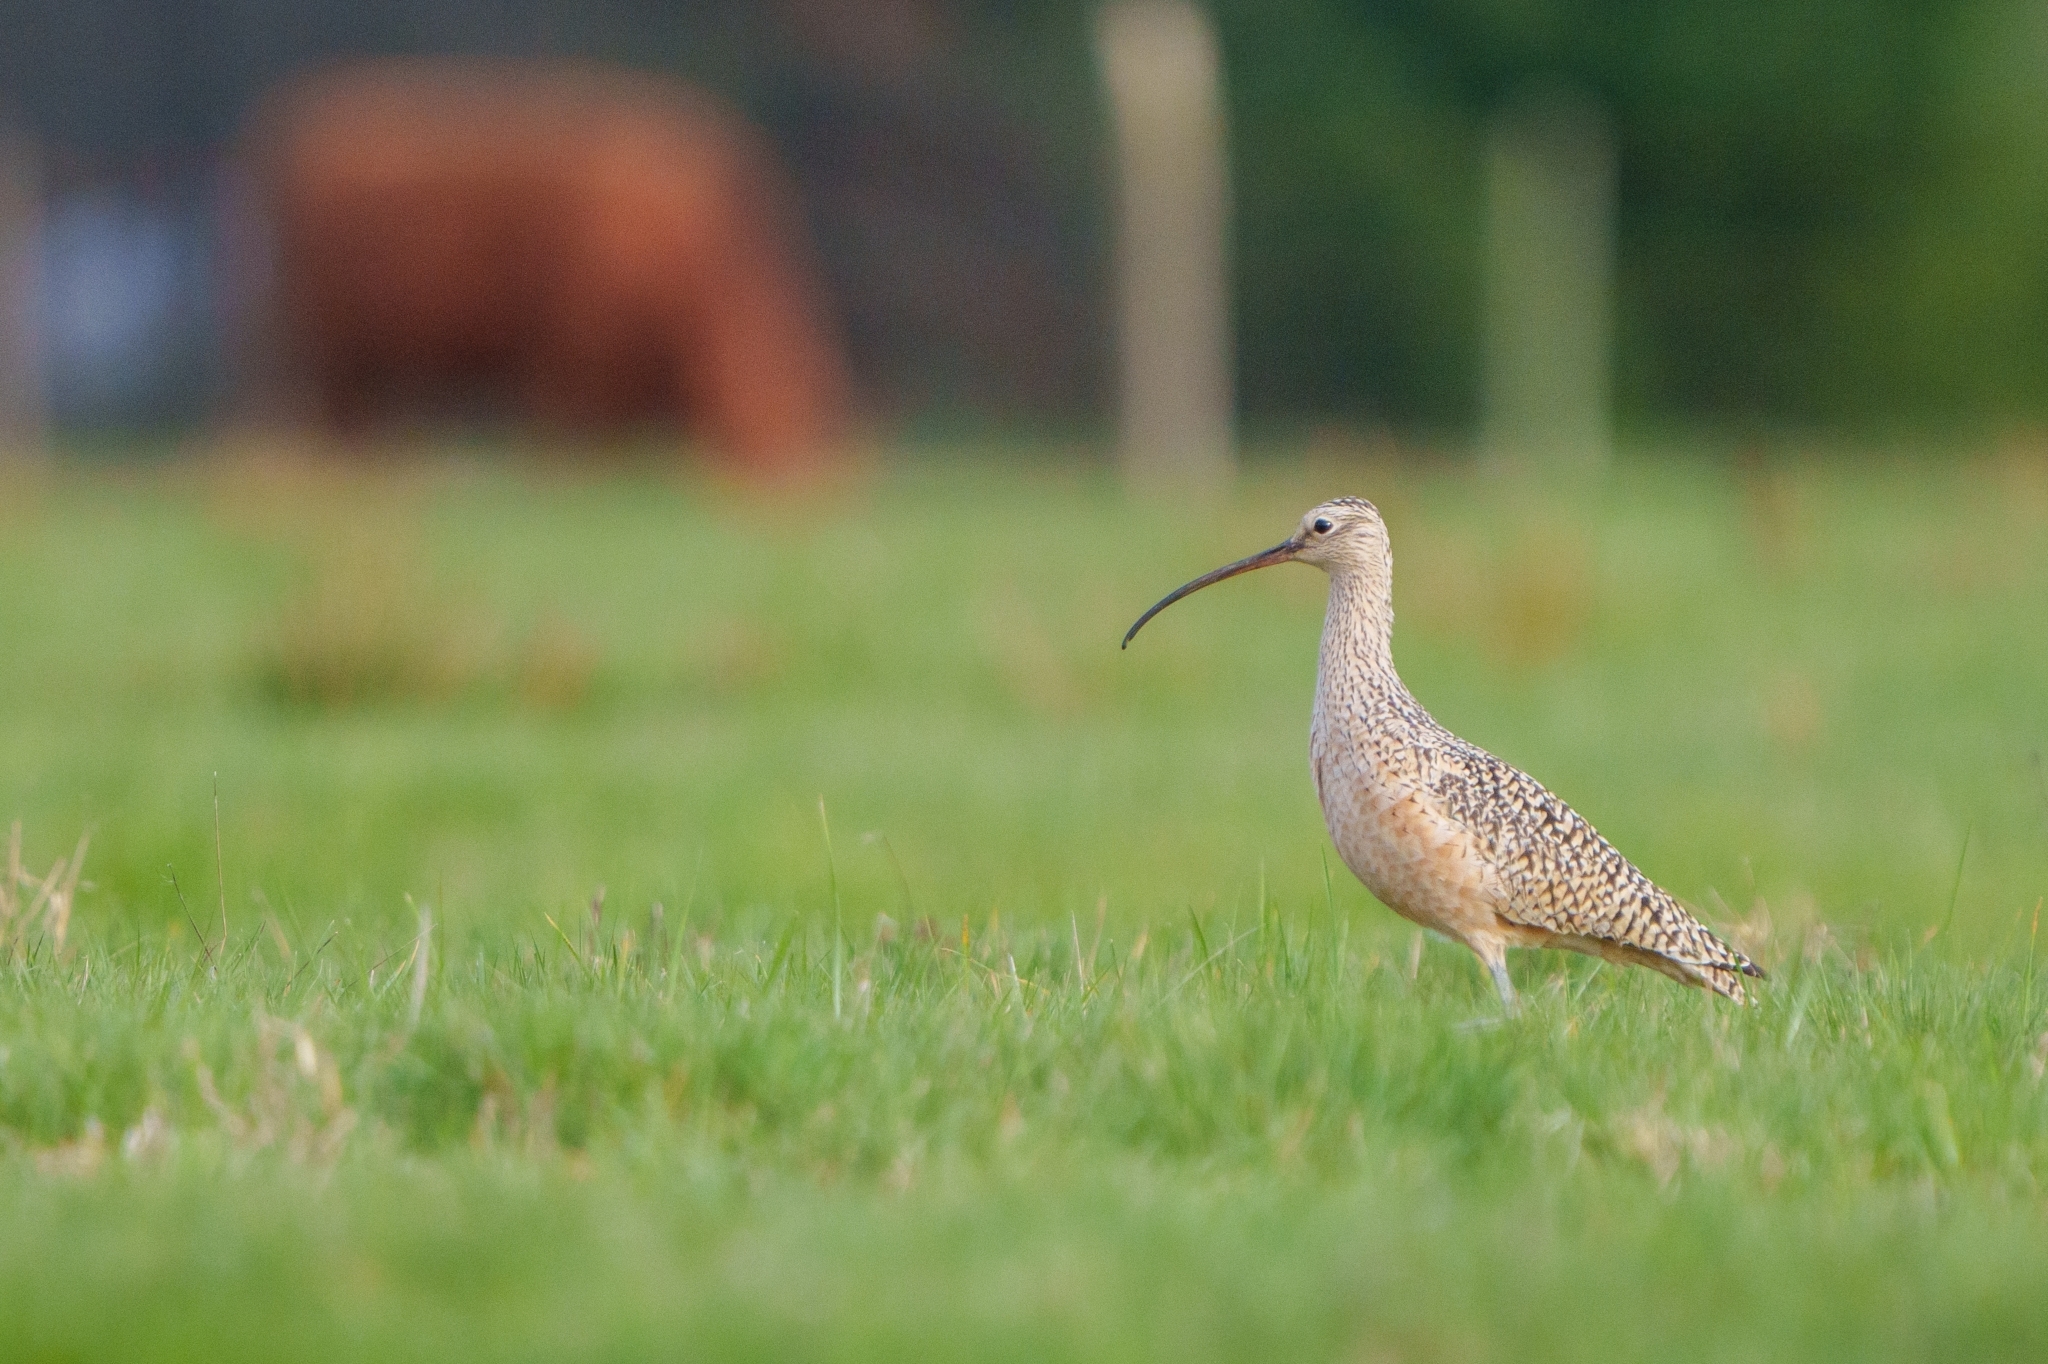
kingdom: Animalia
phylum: Chordata
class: Aves
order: Charadriiformes
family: Scolopacidae
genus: Numenius
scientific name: Numenius americanus
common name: Long-billed curlew
